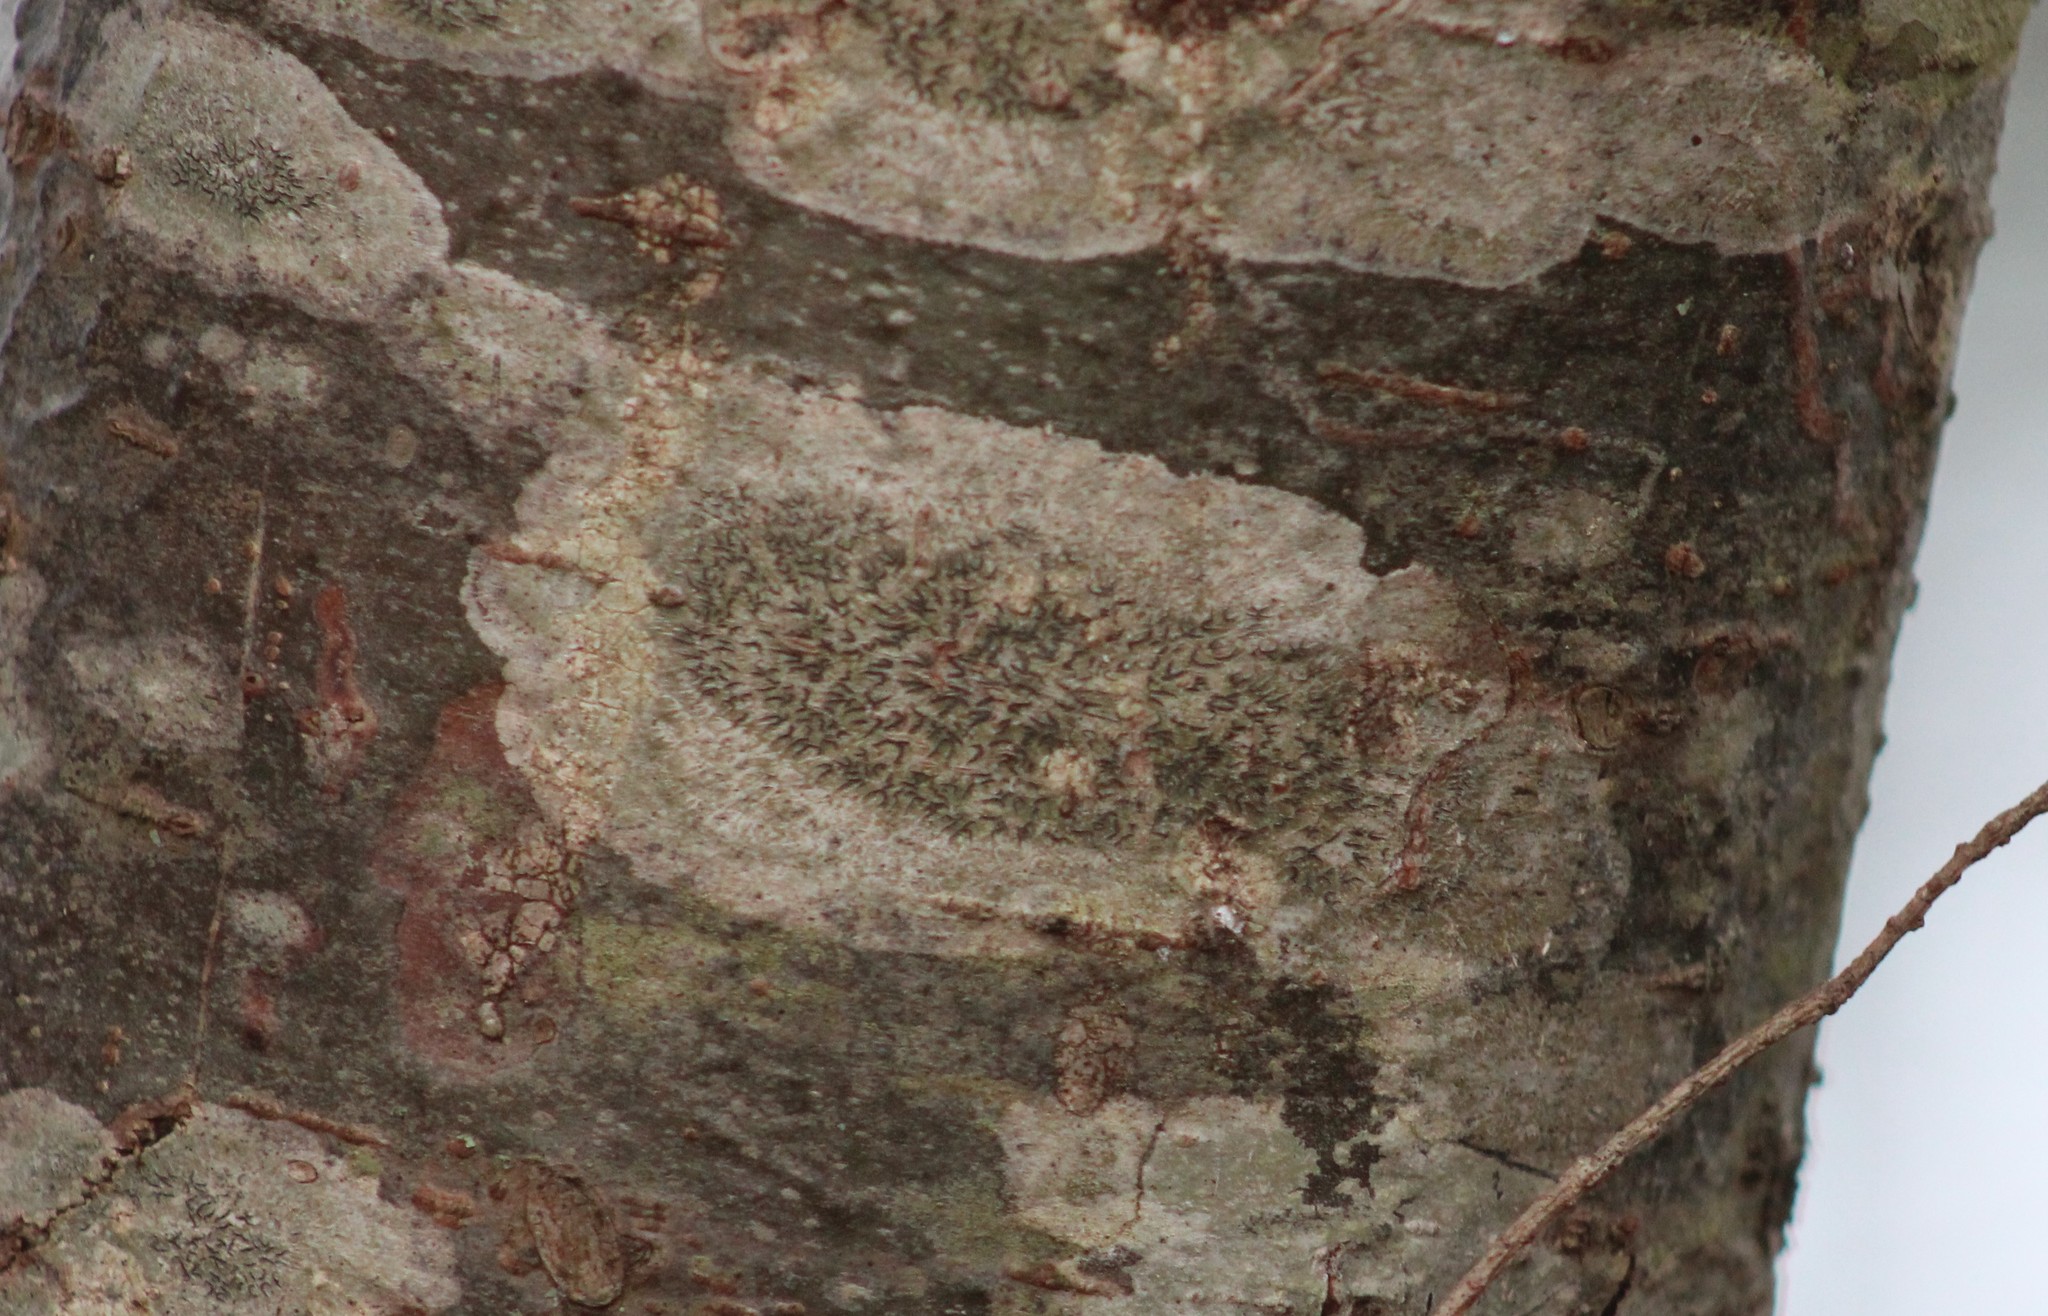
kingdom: Fungi
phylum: Ascomycota
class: Lecanoromycetes
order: Ostropales
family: Graphidaceae
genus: Graphis
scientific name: Graphis scripta
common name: Script lichen
